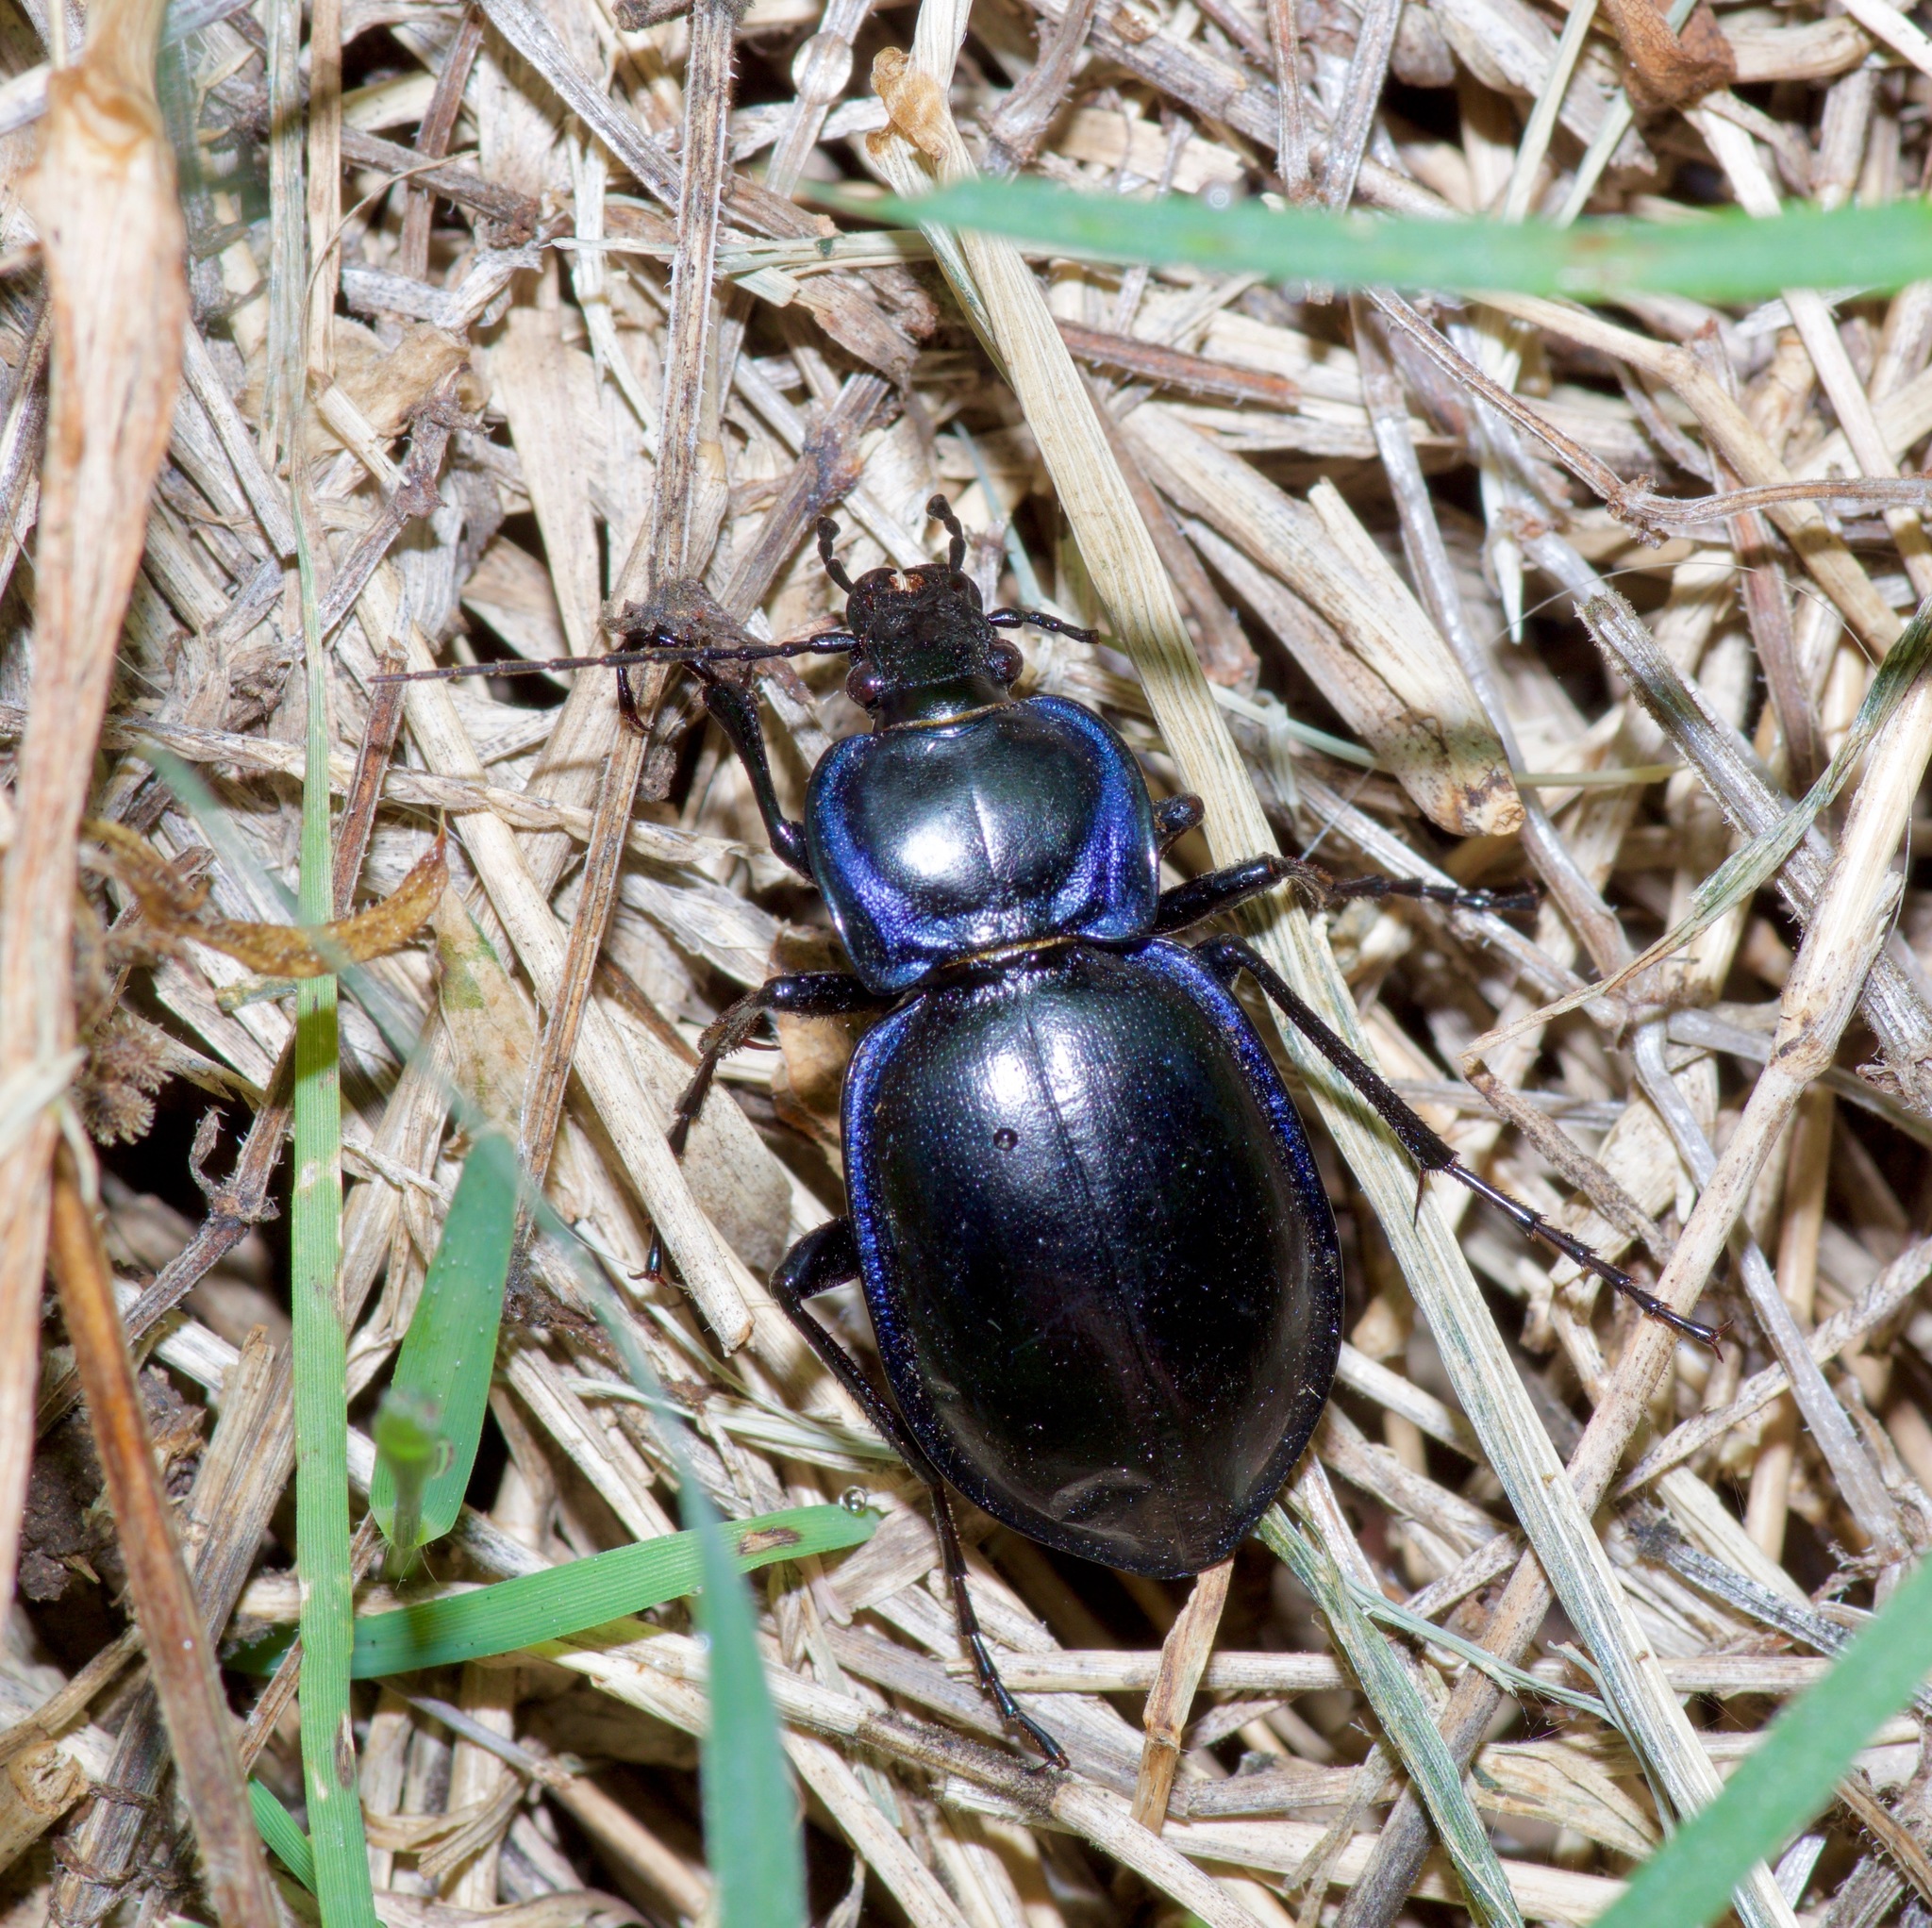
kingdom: Animalia
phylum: Arthropoda
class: Insecta
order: Coleoptera
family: Carabidae
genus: Carabus
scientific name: Carabus finitimus
